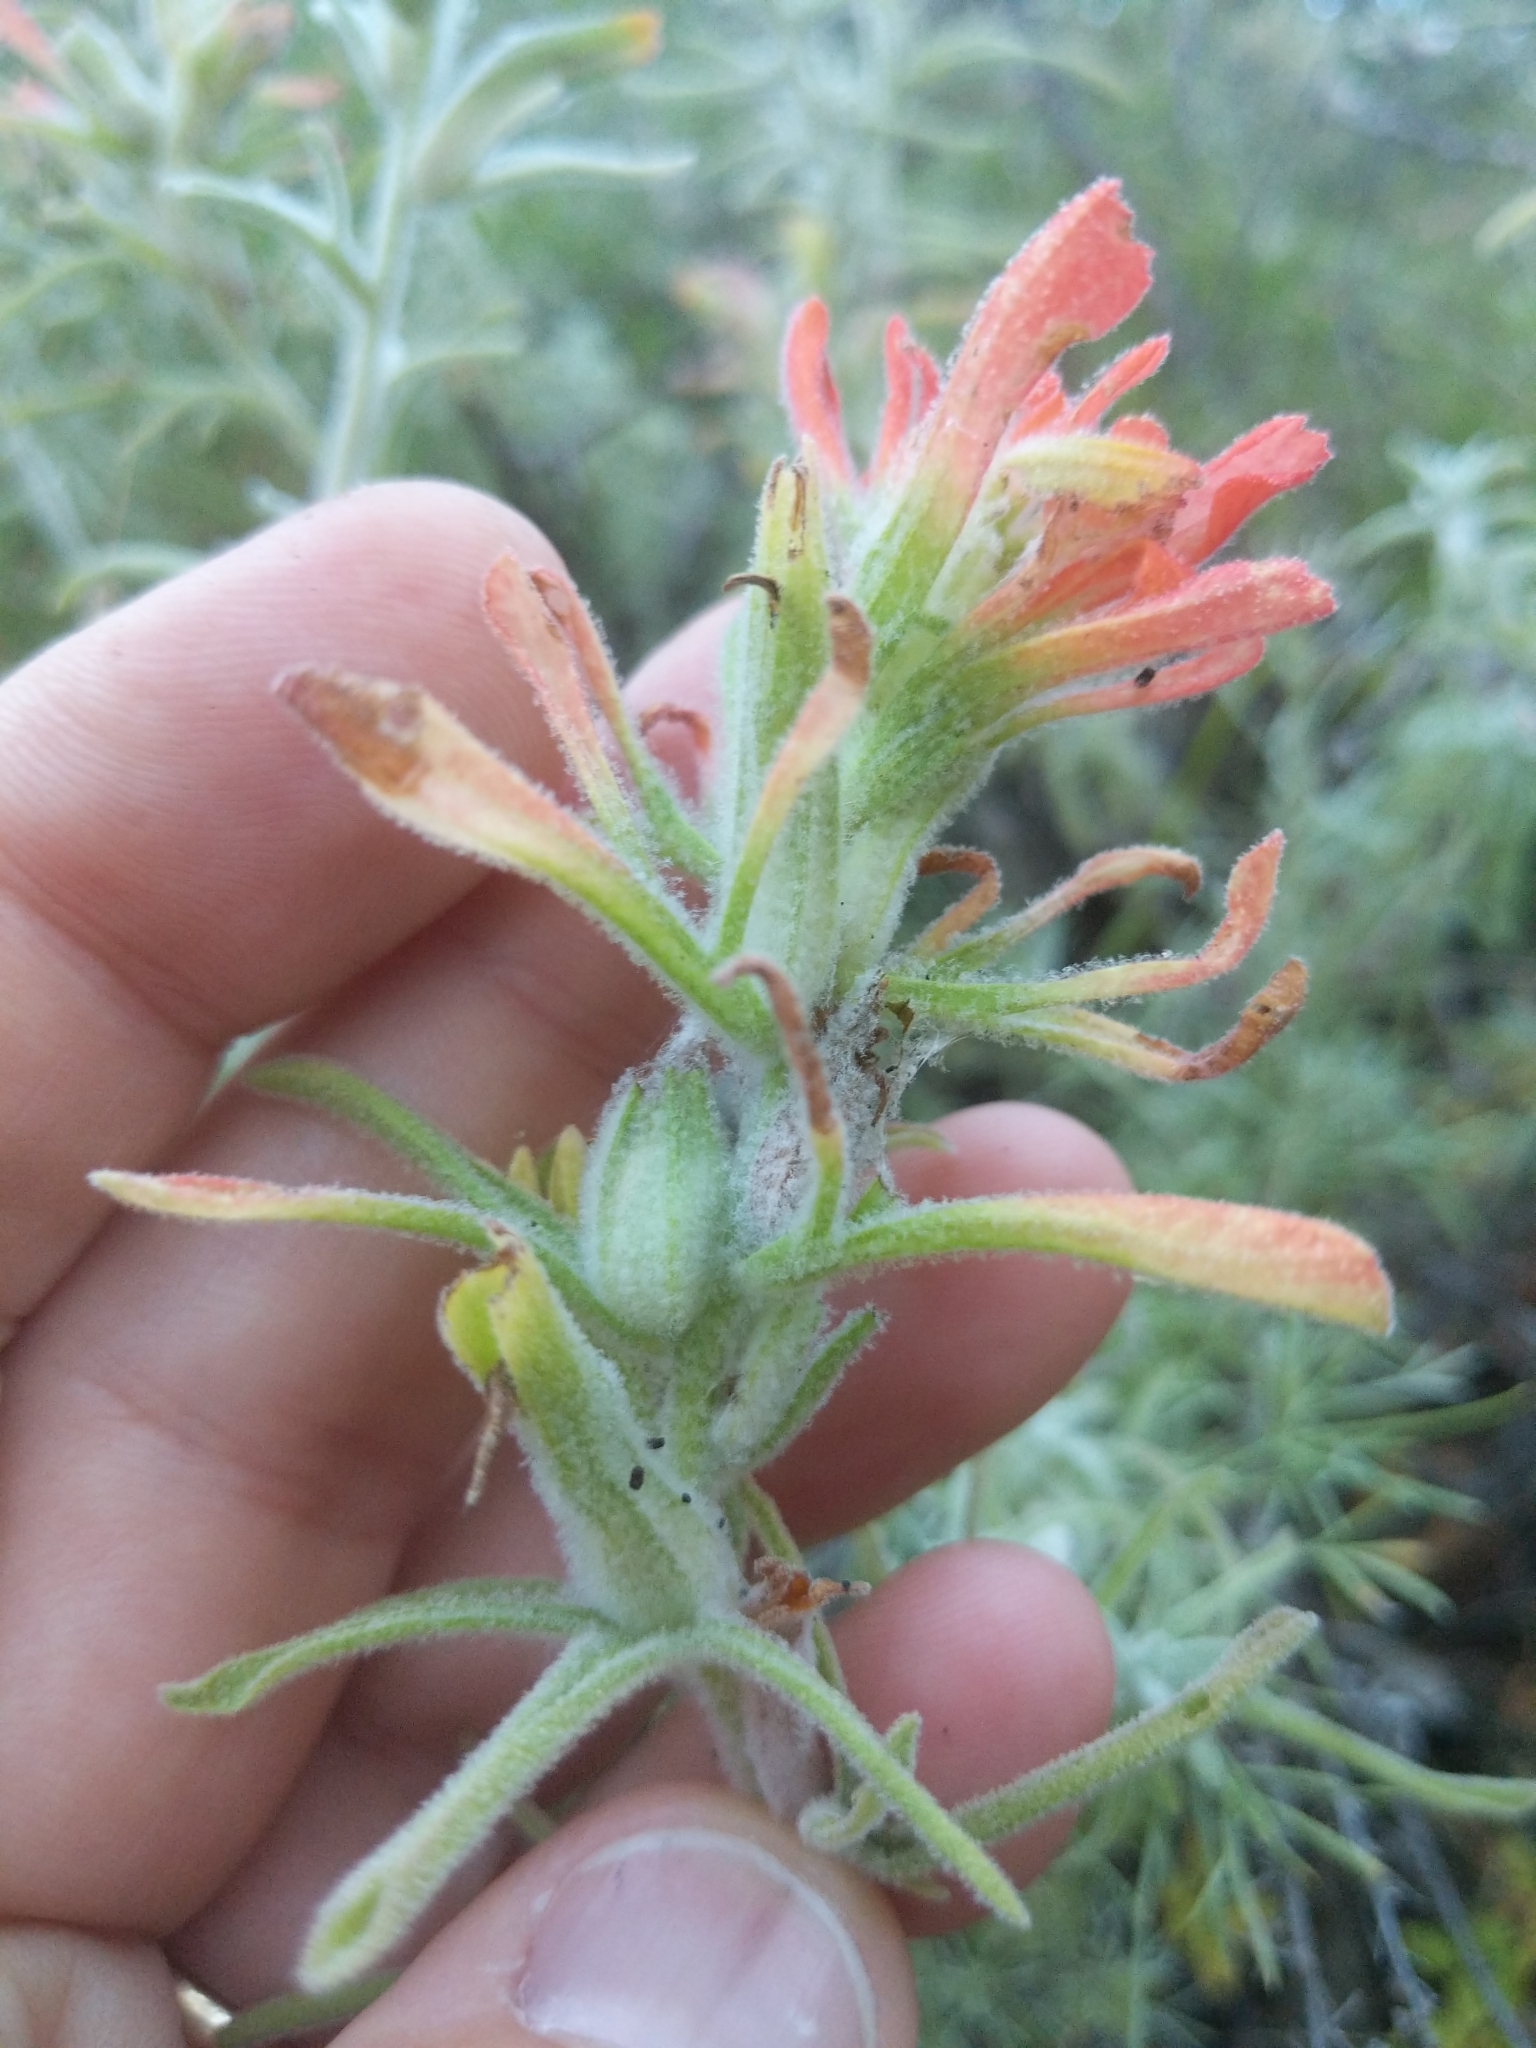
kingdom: Plantae
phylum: Tracheophyta
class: Magnoliopsida
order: Lamiales
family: Orobanchaceae
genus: Castilleja
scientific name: Castilleja foliolosa
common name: Woolly indian paintbrush
